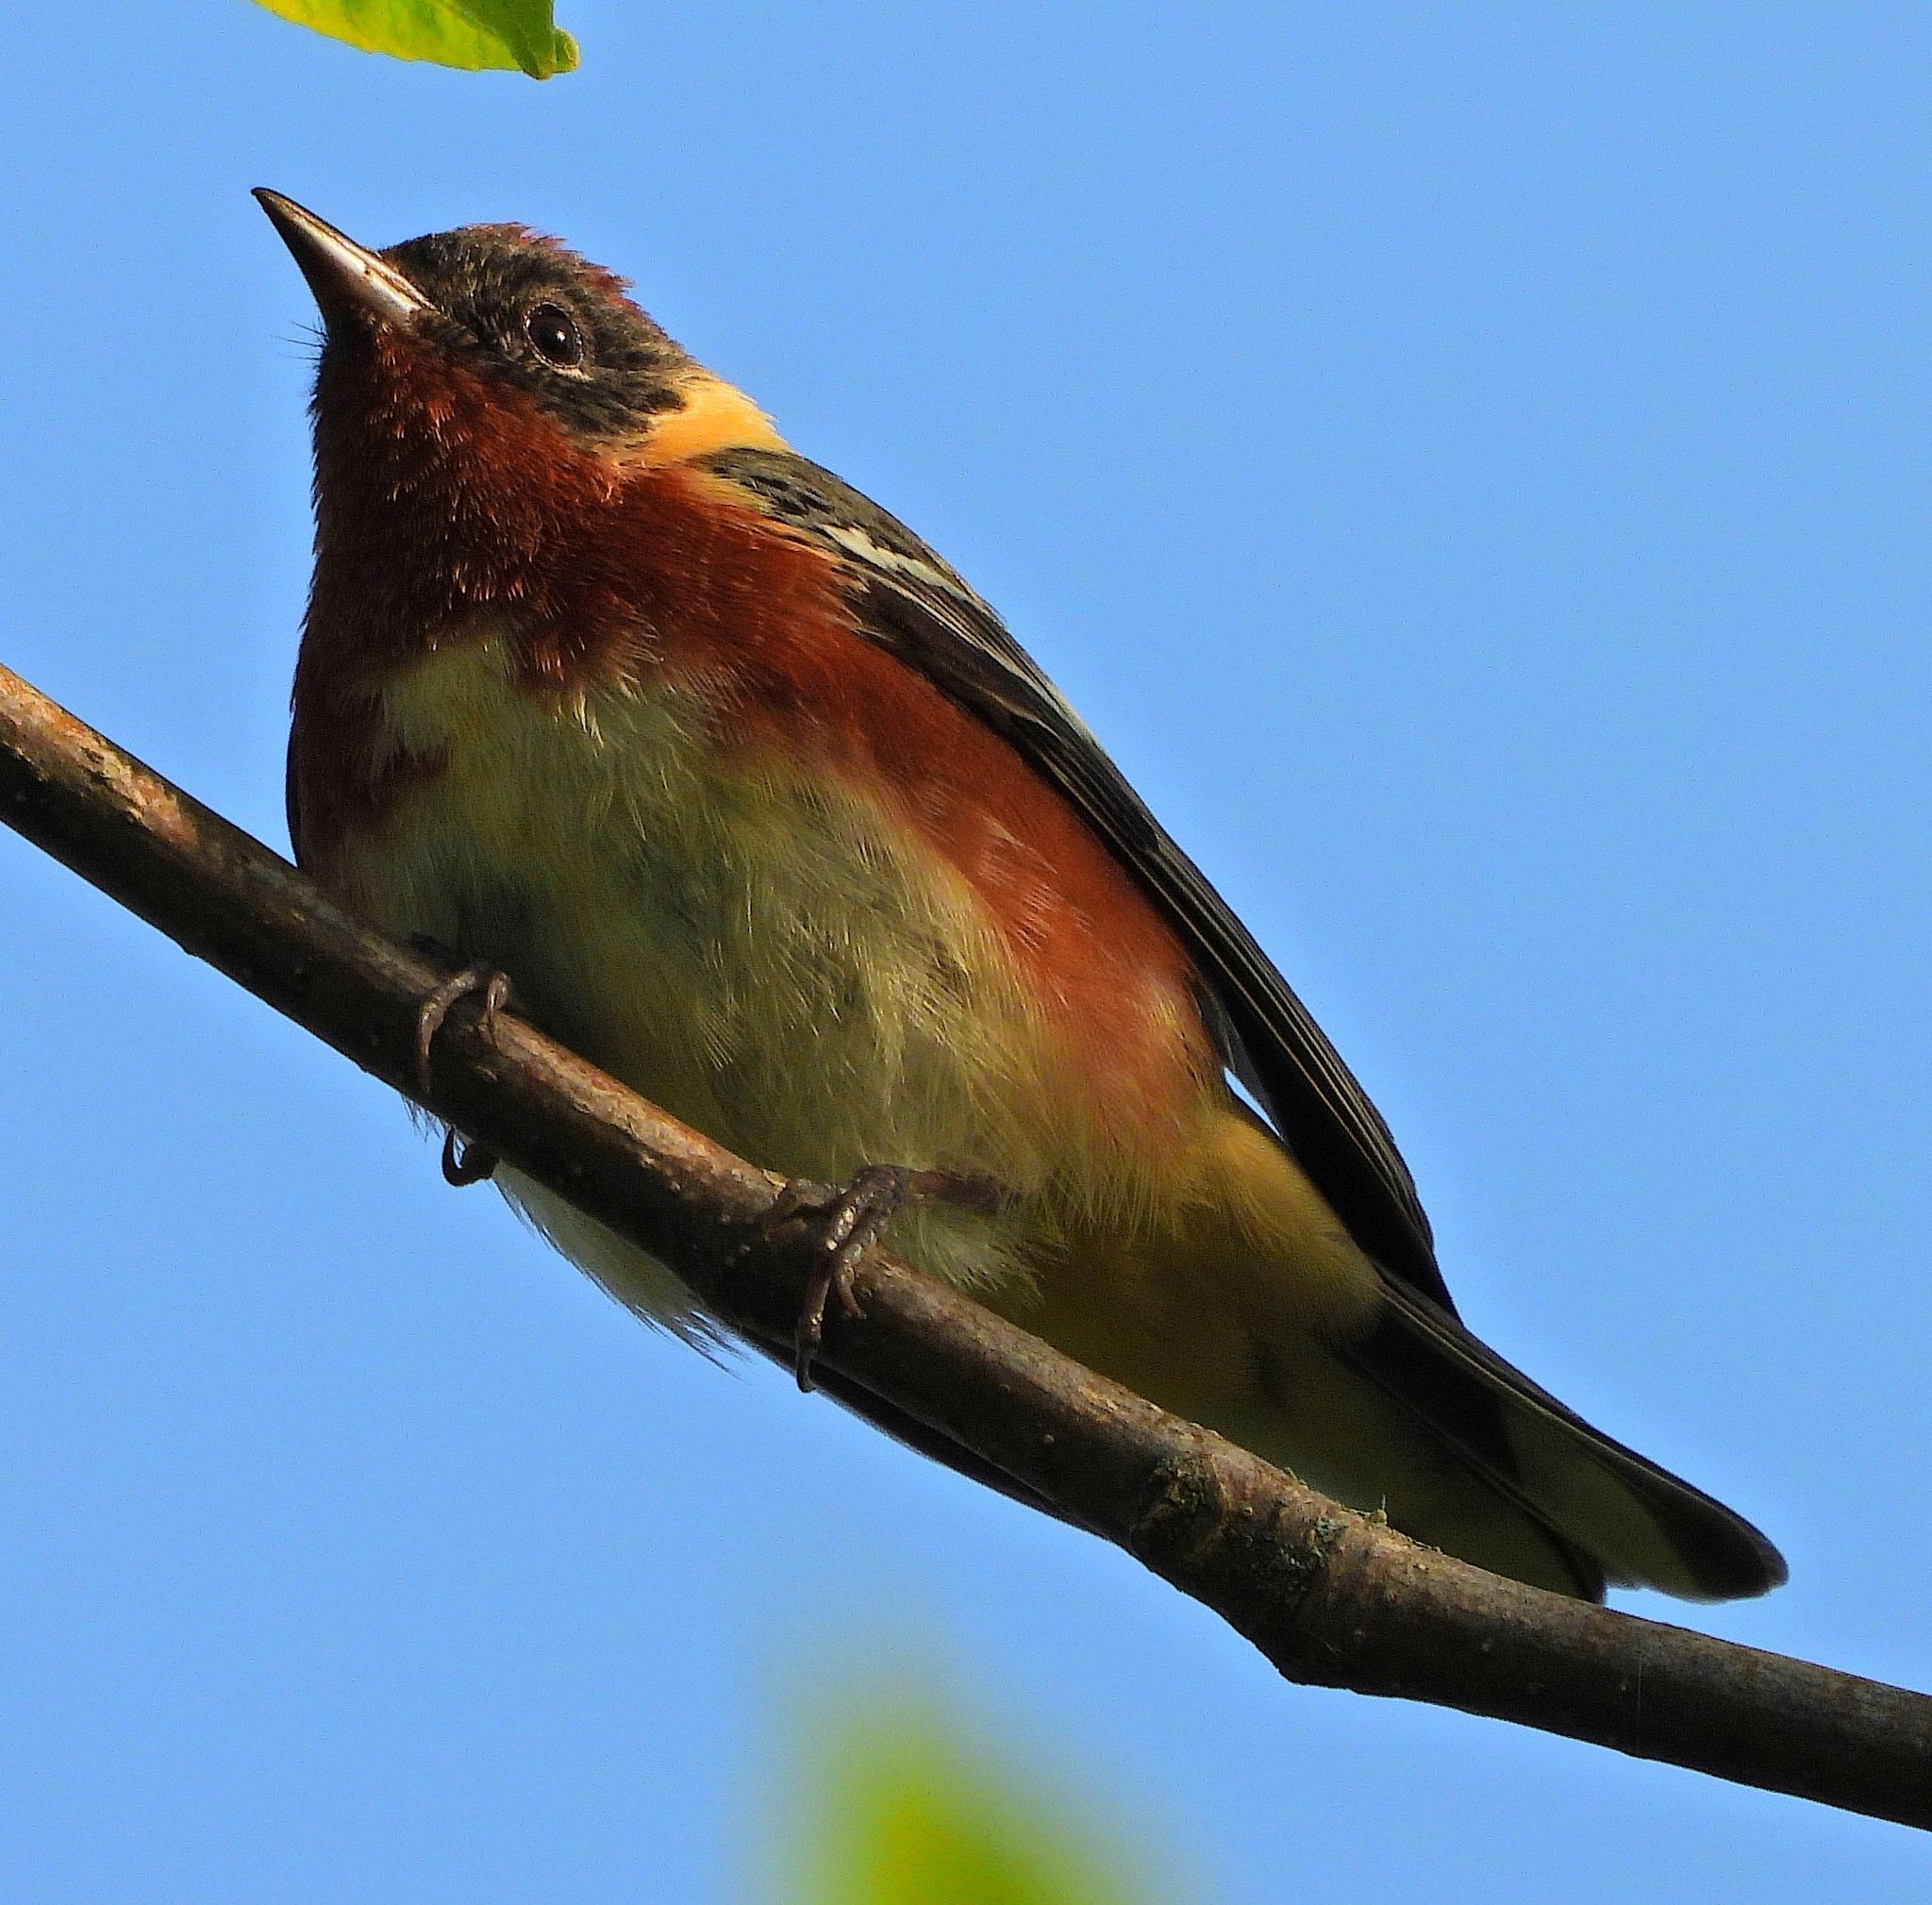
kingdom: Animalia
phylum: Chordata
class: Aves
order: Passeriformes
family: Parulidae
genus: Setophaga
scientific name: Setophaga castanea
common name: Bay-breasted warbler
